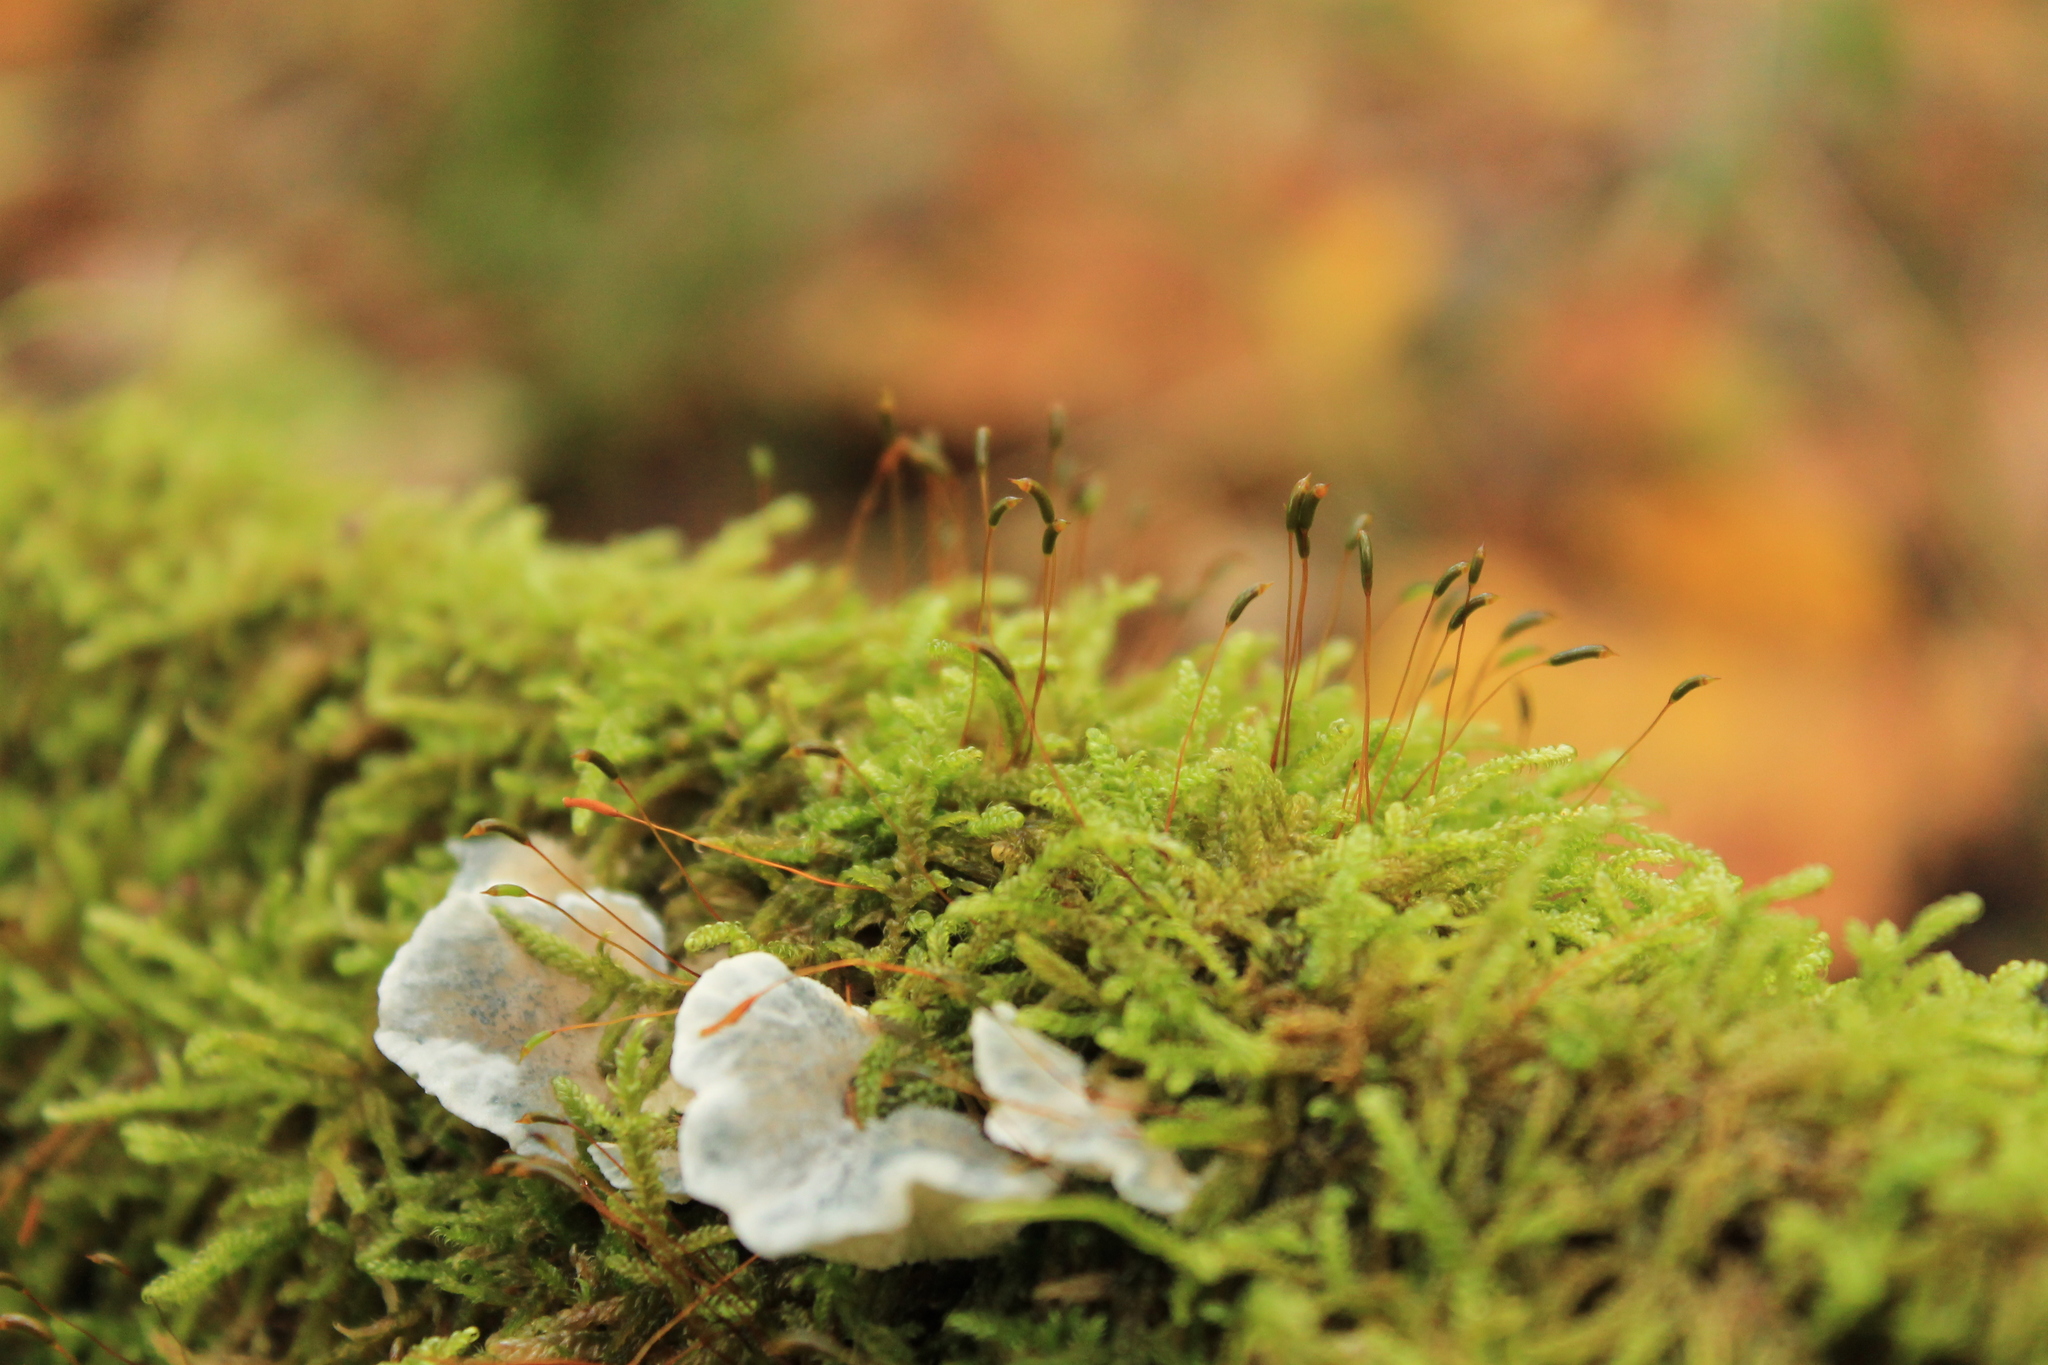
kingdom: Plantae
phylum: Bryophyta
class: Bryopsida
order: Hypnales
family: Hypnaceae
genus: Hypnum
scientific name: Hypnum cupressiforme
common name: Cypress-leaved plait-moss
